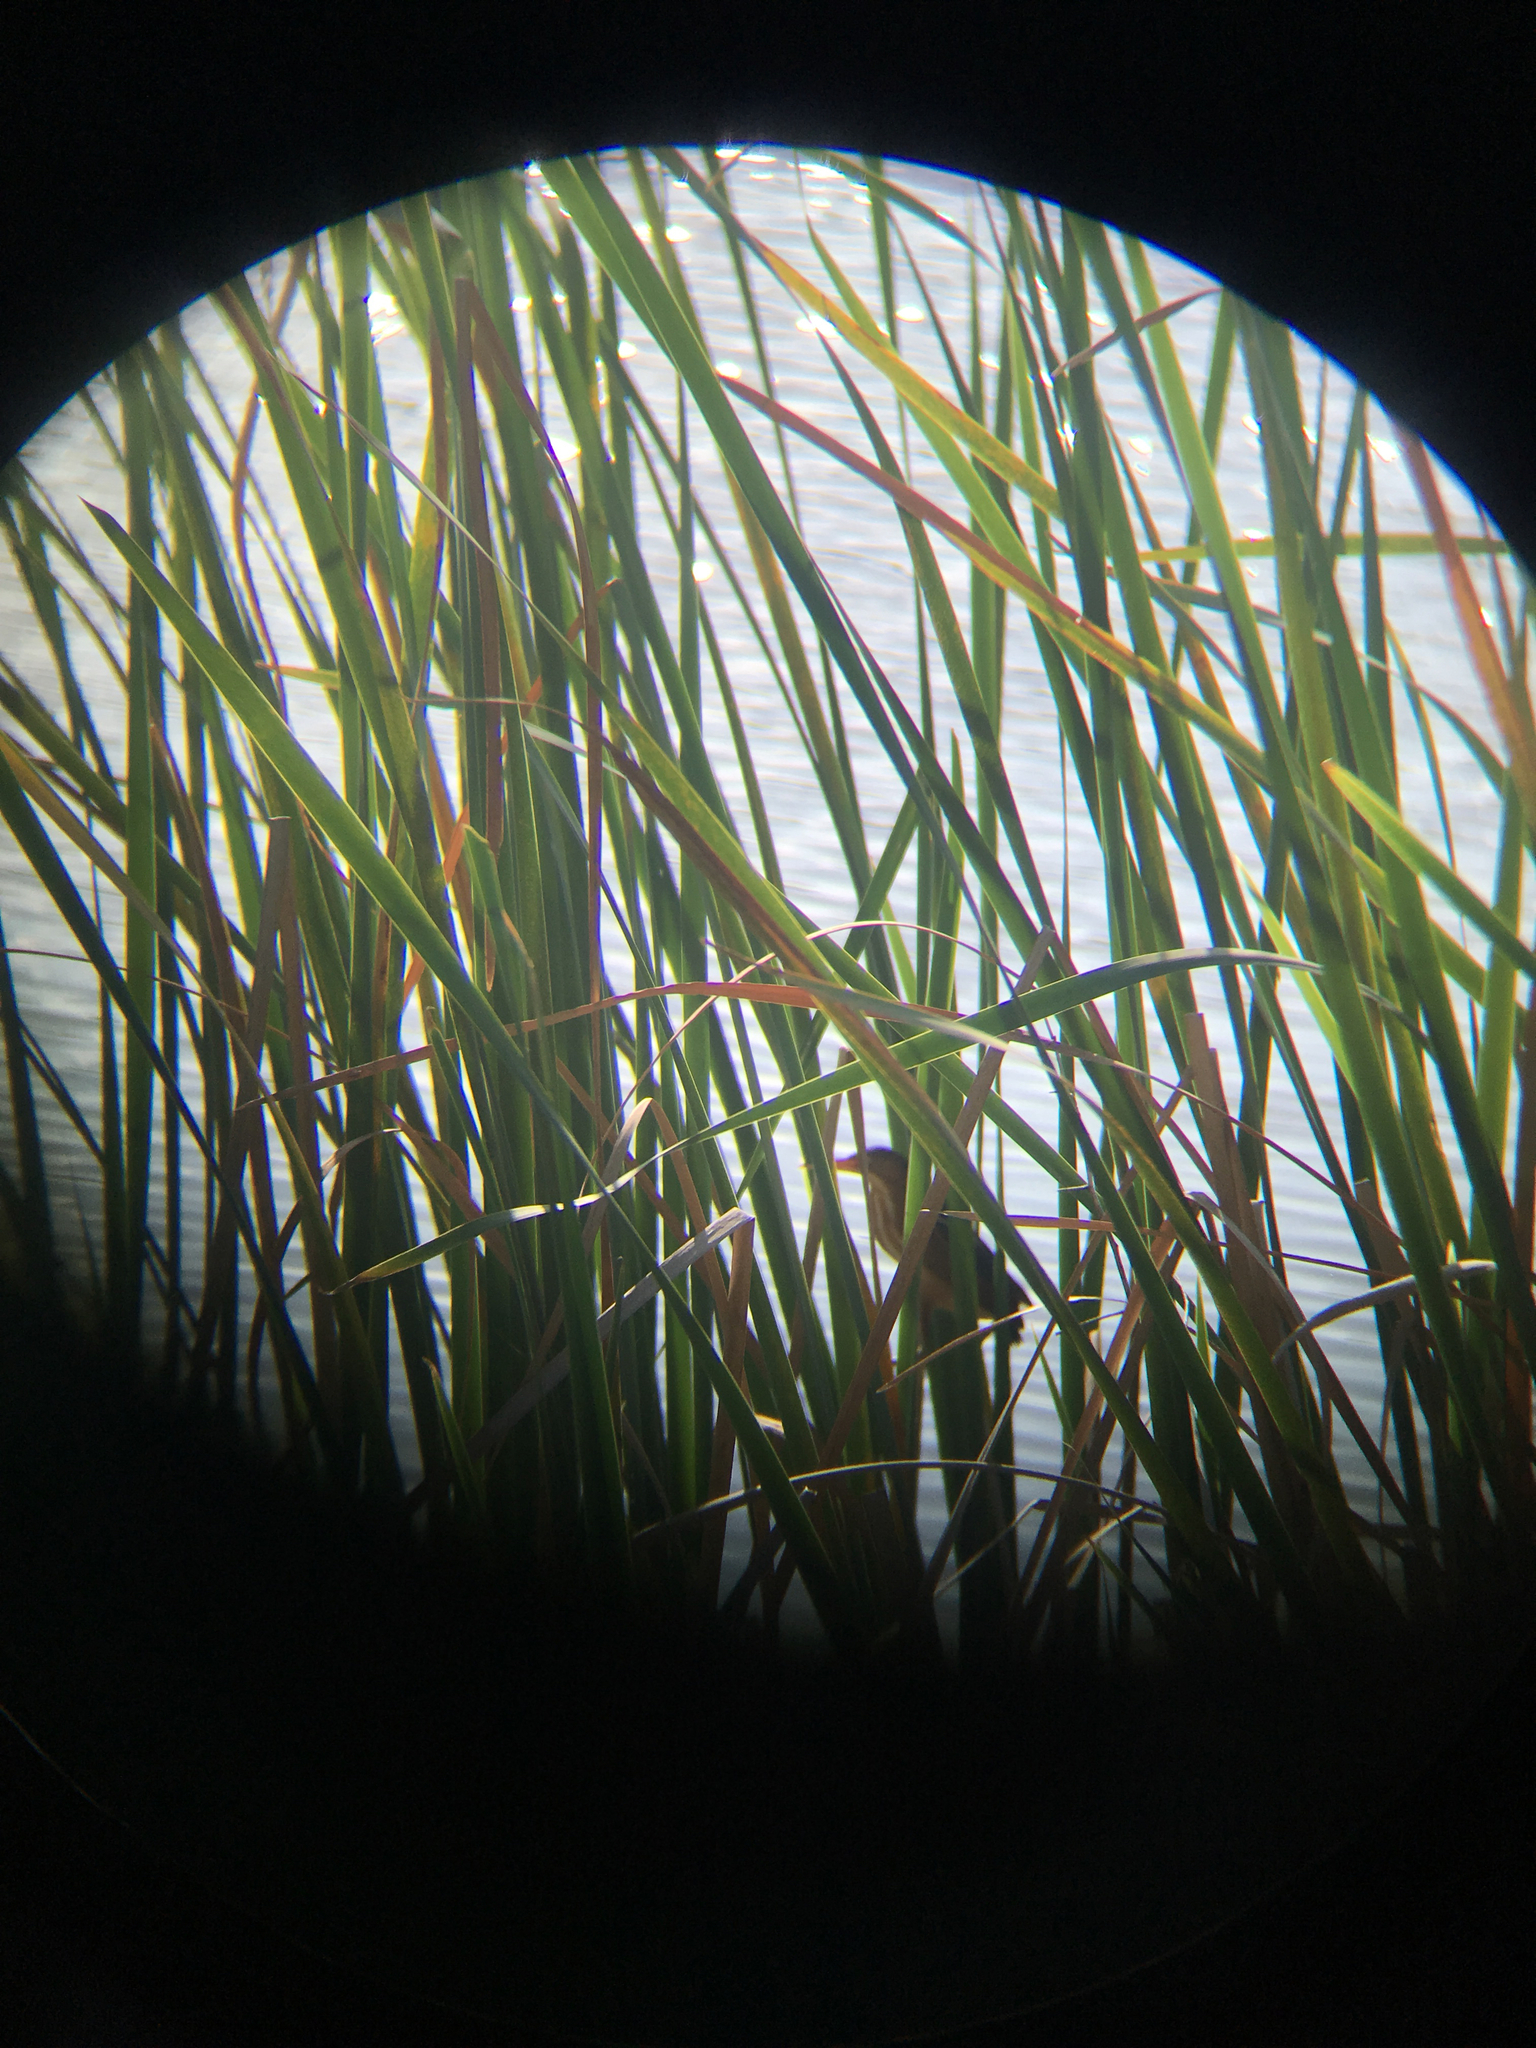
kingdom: Animalia
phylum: Chordata
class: Aves
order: Pelecaniformes
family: Ardeidae
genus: Ixobrychus
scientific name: Ixobrychus exilis
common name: Least bittern
